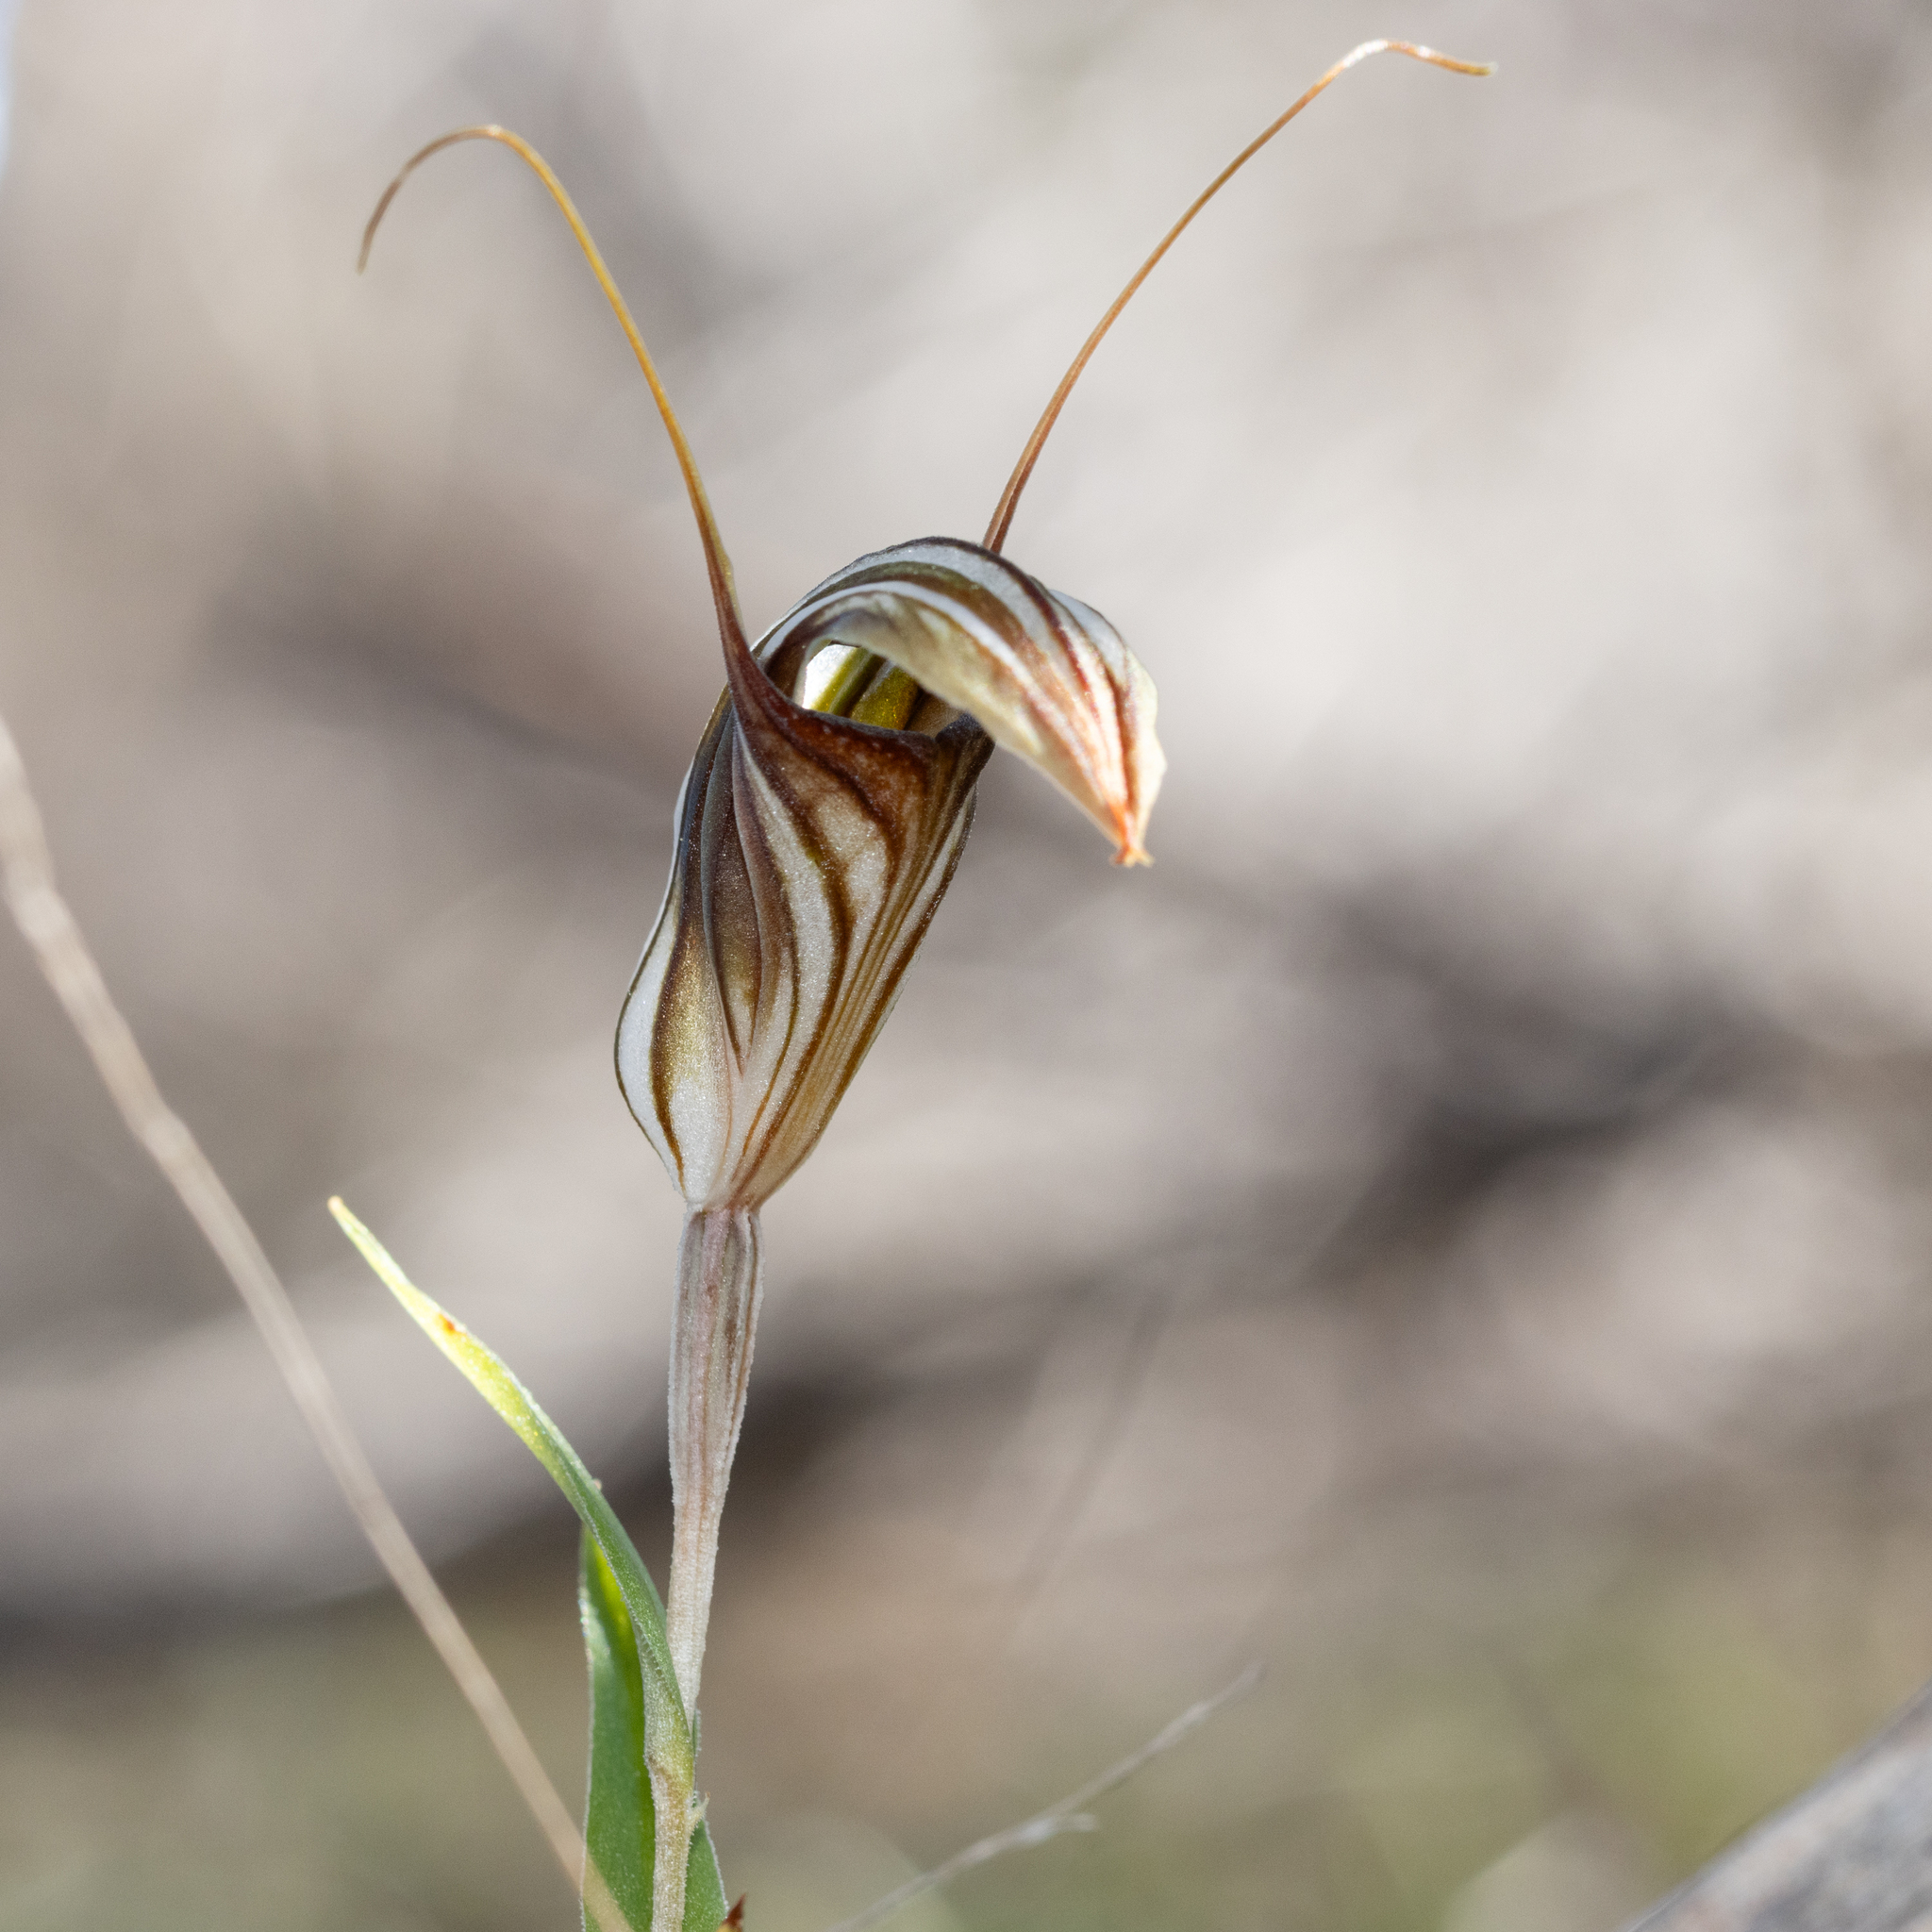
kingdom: Plantae
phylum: Tracheophyta
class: Liliopsida
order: Asparagales
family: Orchidaceae
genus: Pterostylis
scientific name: Pterostylis dolichochila
